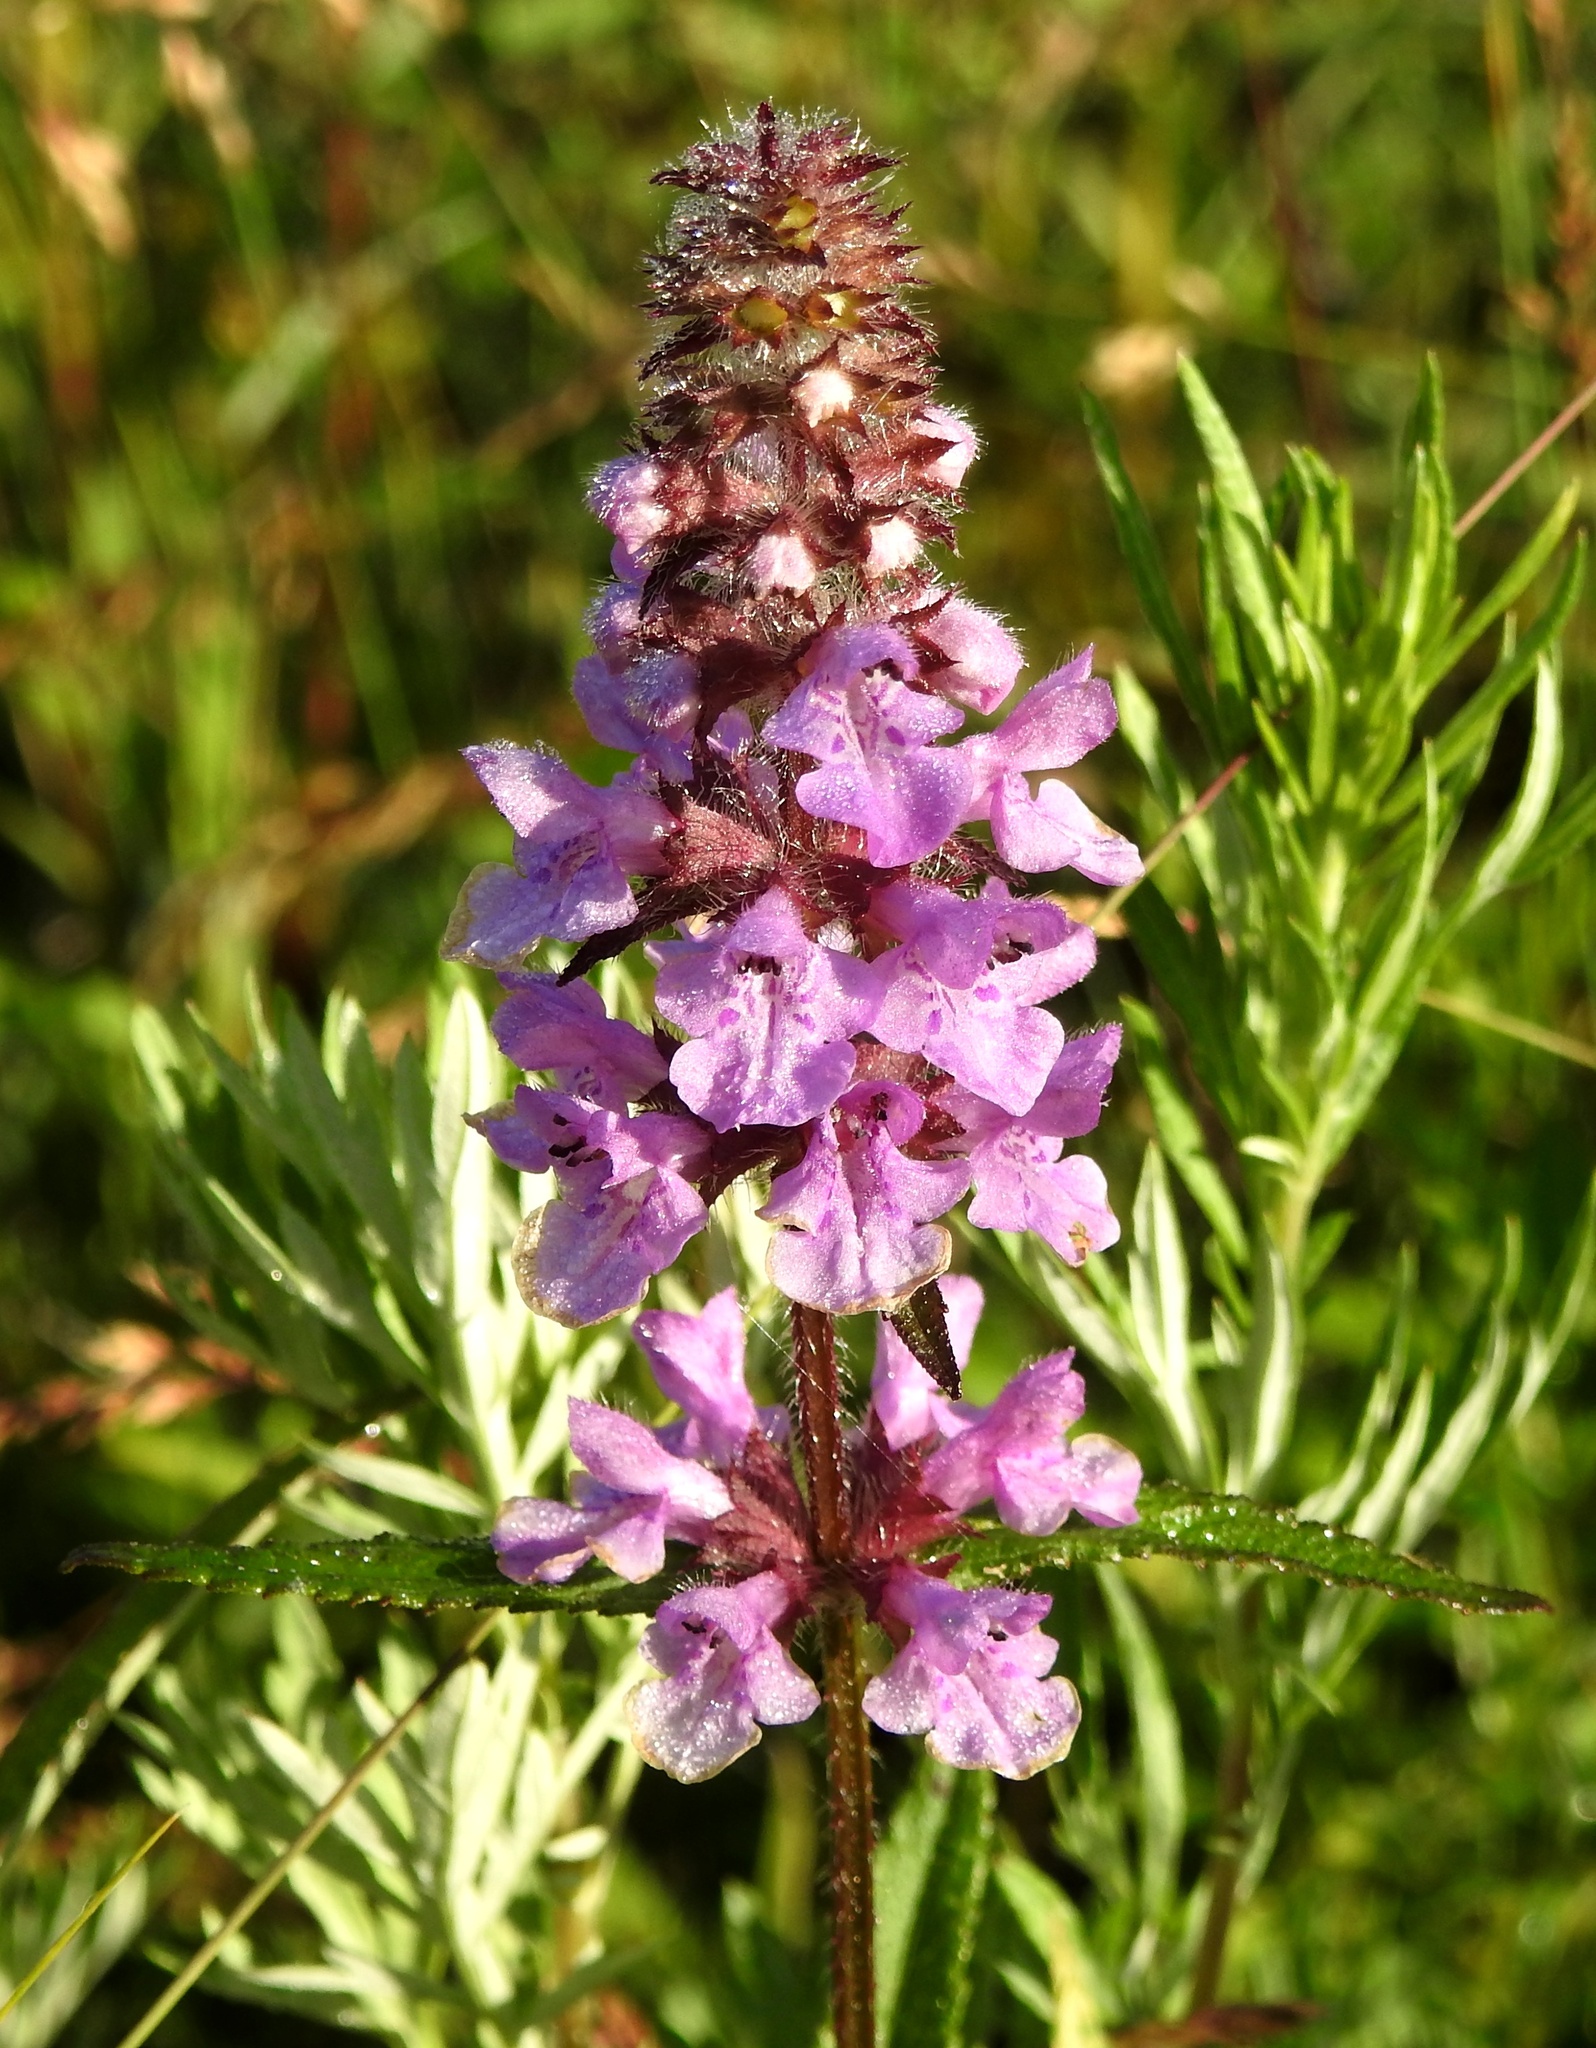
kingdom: Plantae
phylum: Tracheophyta
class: Magnoliopsida
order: Lamiales
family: Lamiaceae
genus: Stachys
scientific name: Stachys aspera
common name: Hyssopleaf hedgenettle
